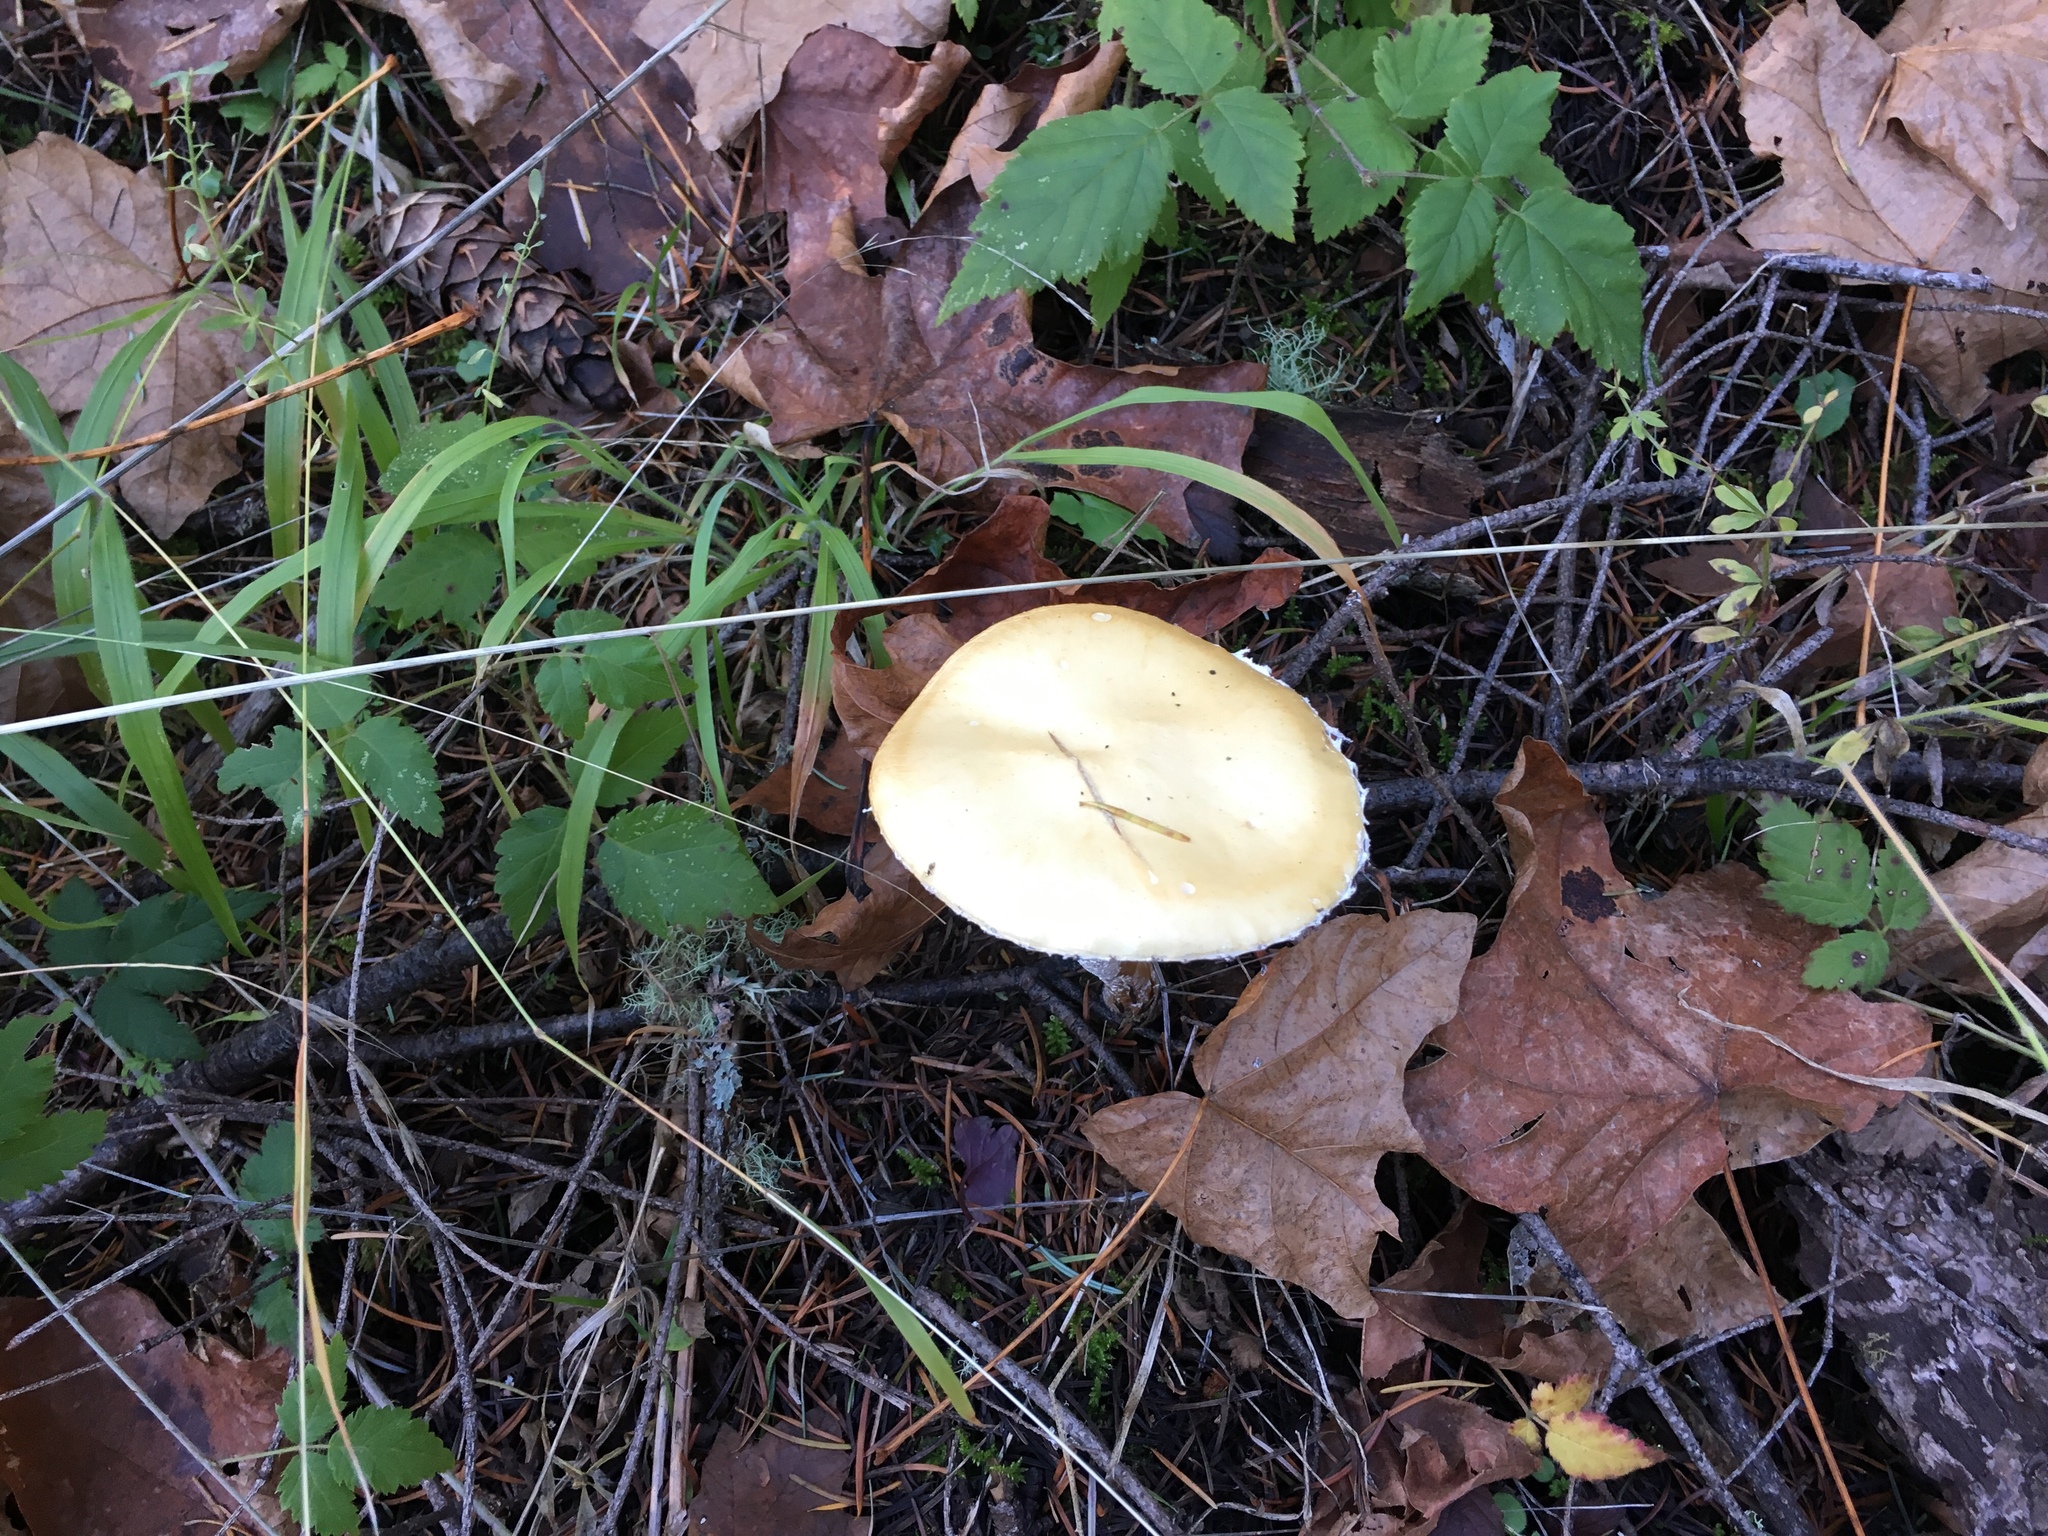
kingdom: Fungi
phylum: Basidiomycota
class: Agaricomycetes
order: Agaricales
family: Strophariaceae
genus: Stropharia
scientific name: Stropharia ambigua
